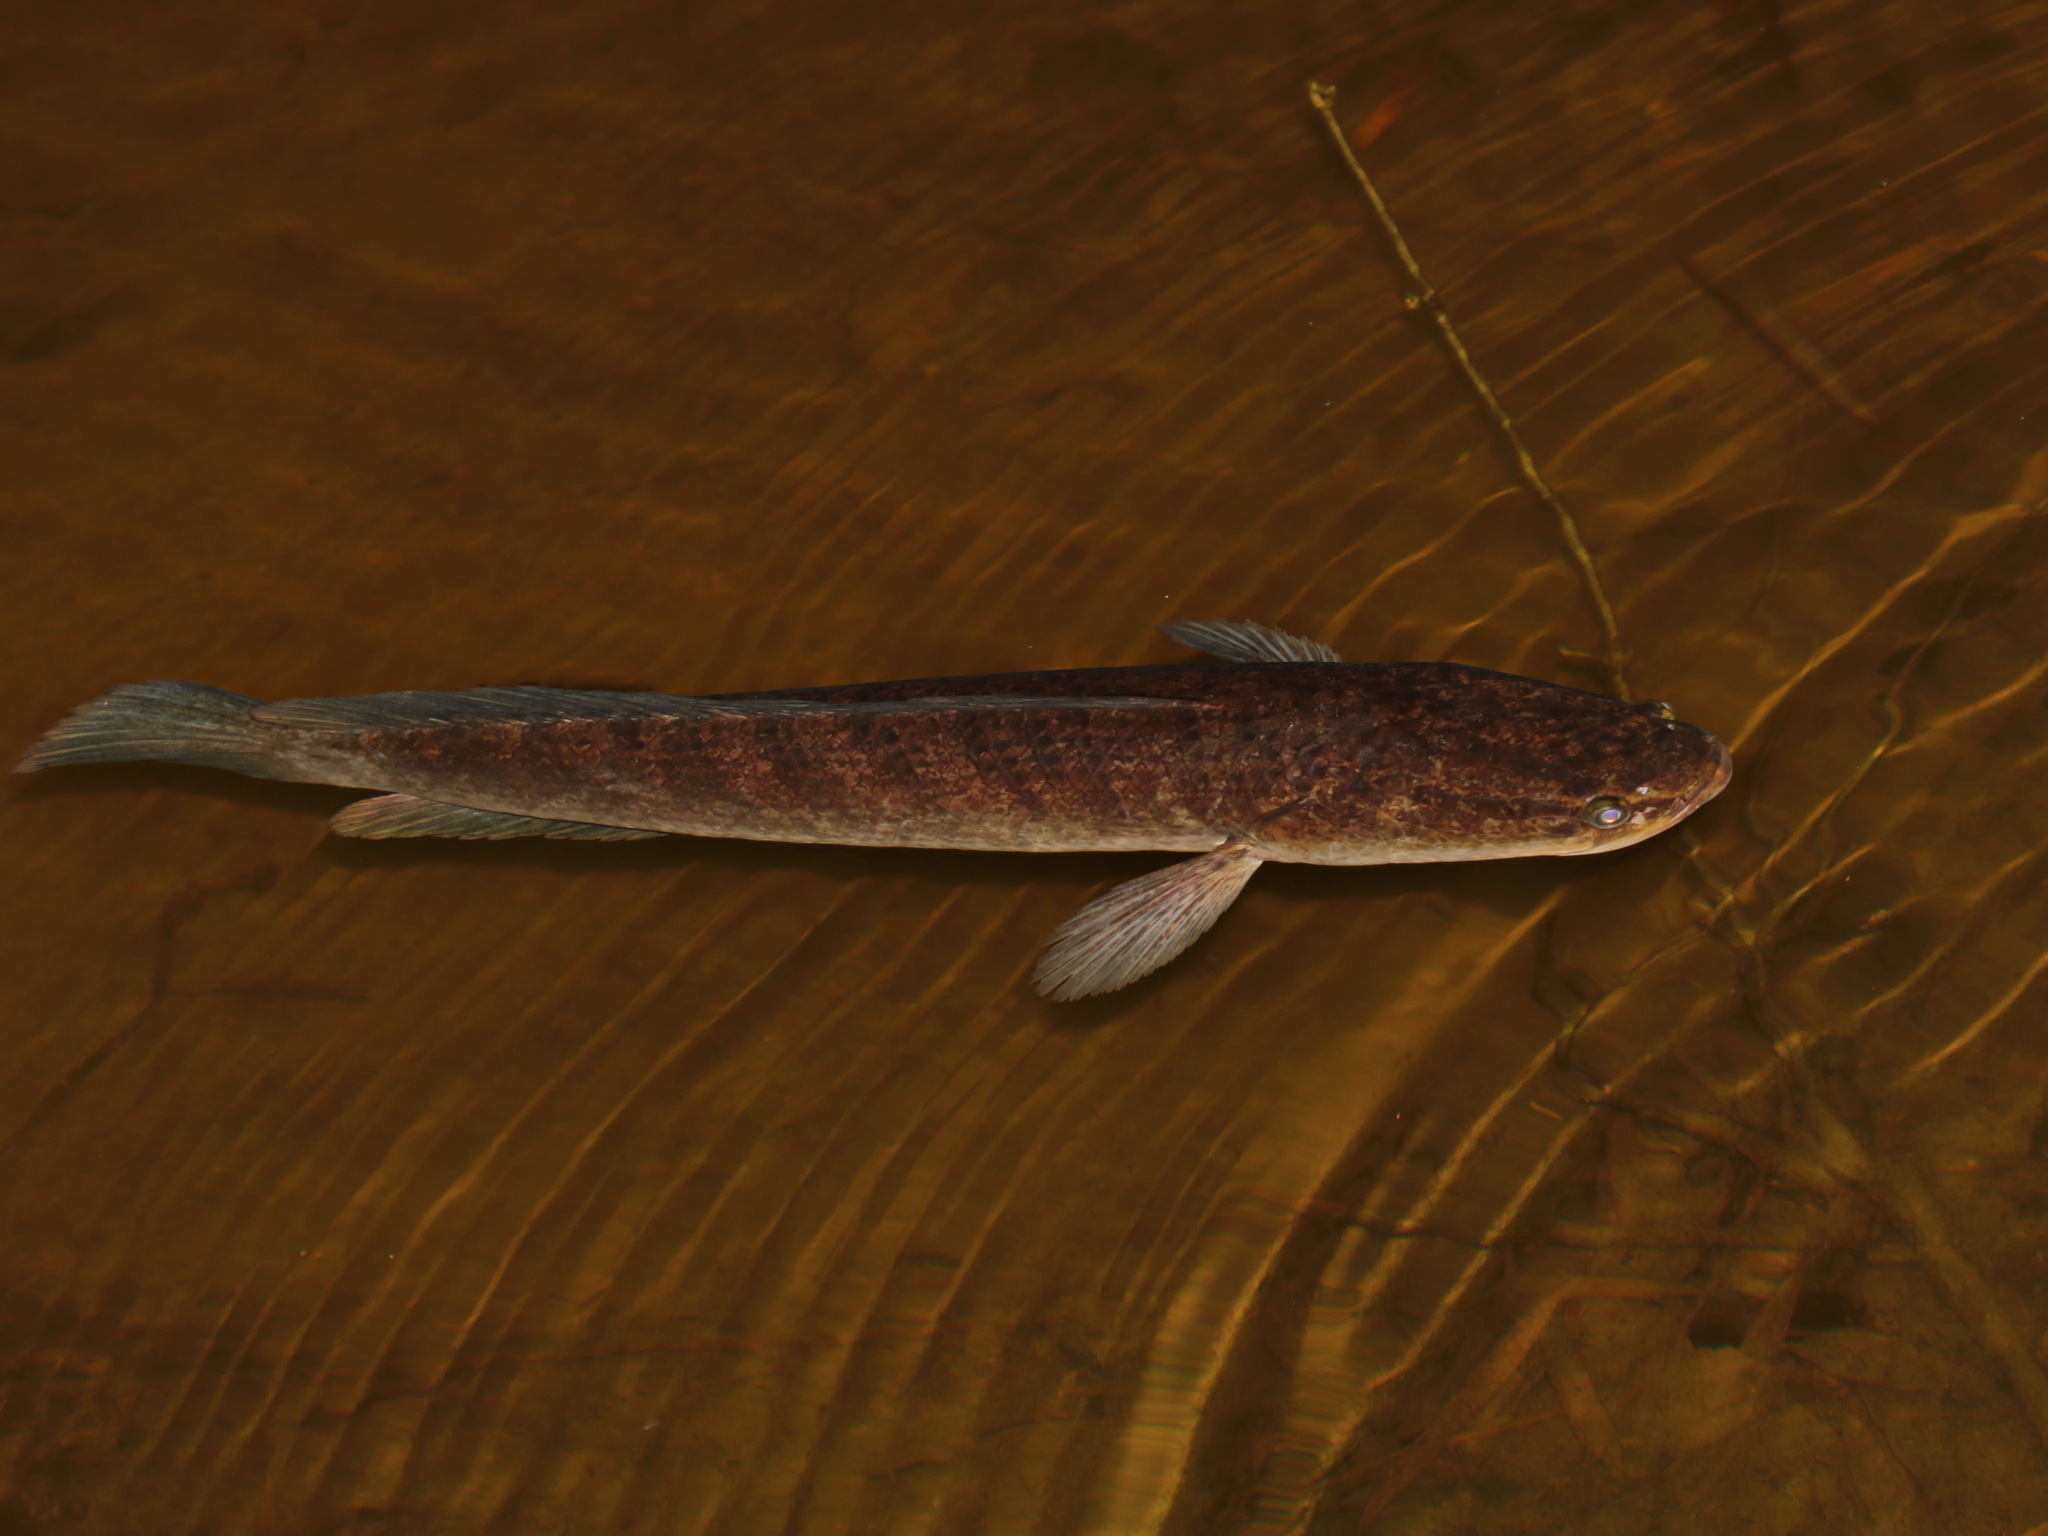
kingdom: Animalia
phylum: Chordata
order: Perciformes
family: Channidae
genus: Channa
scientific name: Channa striata
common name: Striped snakehead
